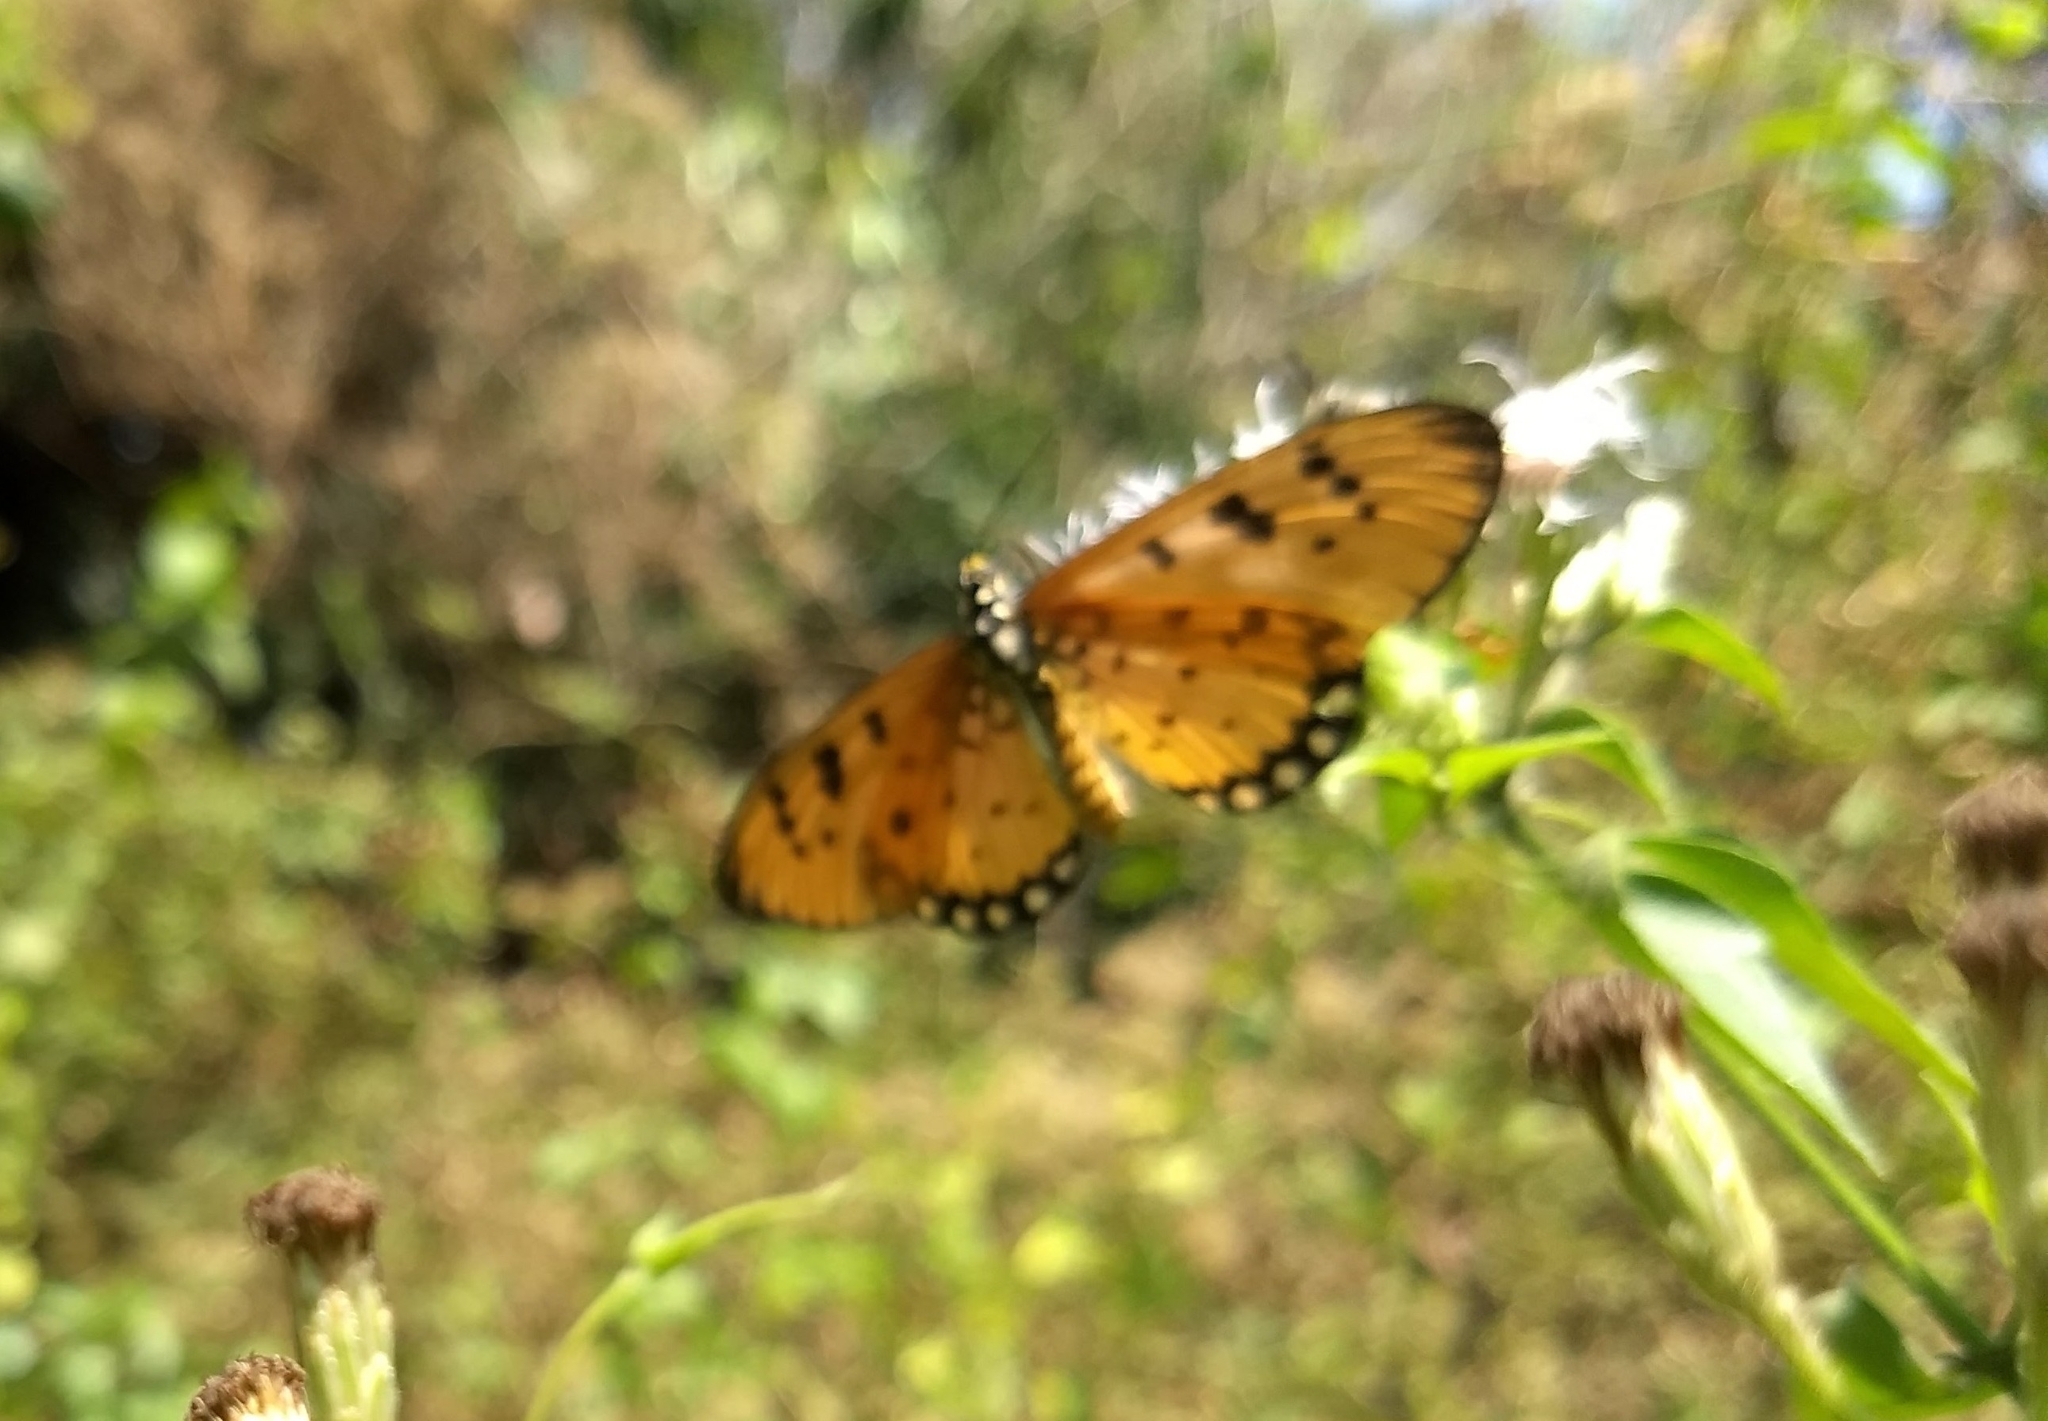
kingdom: Animalia
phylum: Arthropoda
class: Insecta
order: Lepidoptera
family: Nymphalidae
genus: Acraea
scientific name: Acraea terpsicore
